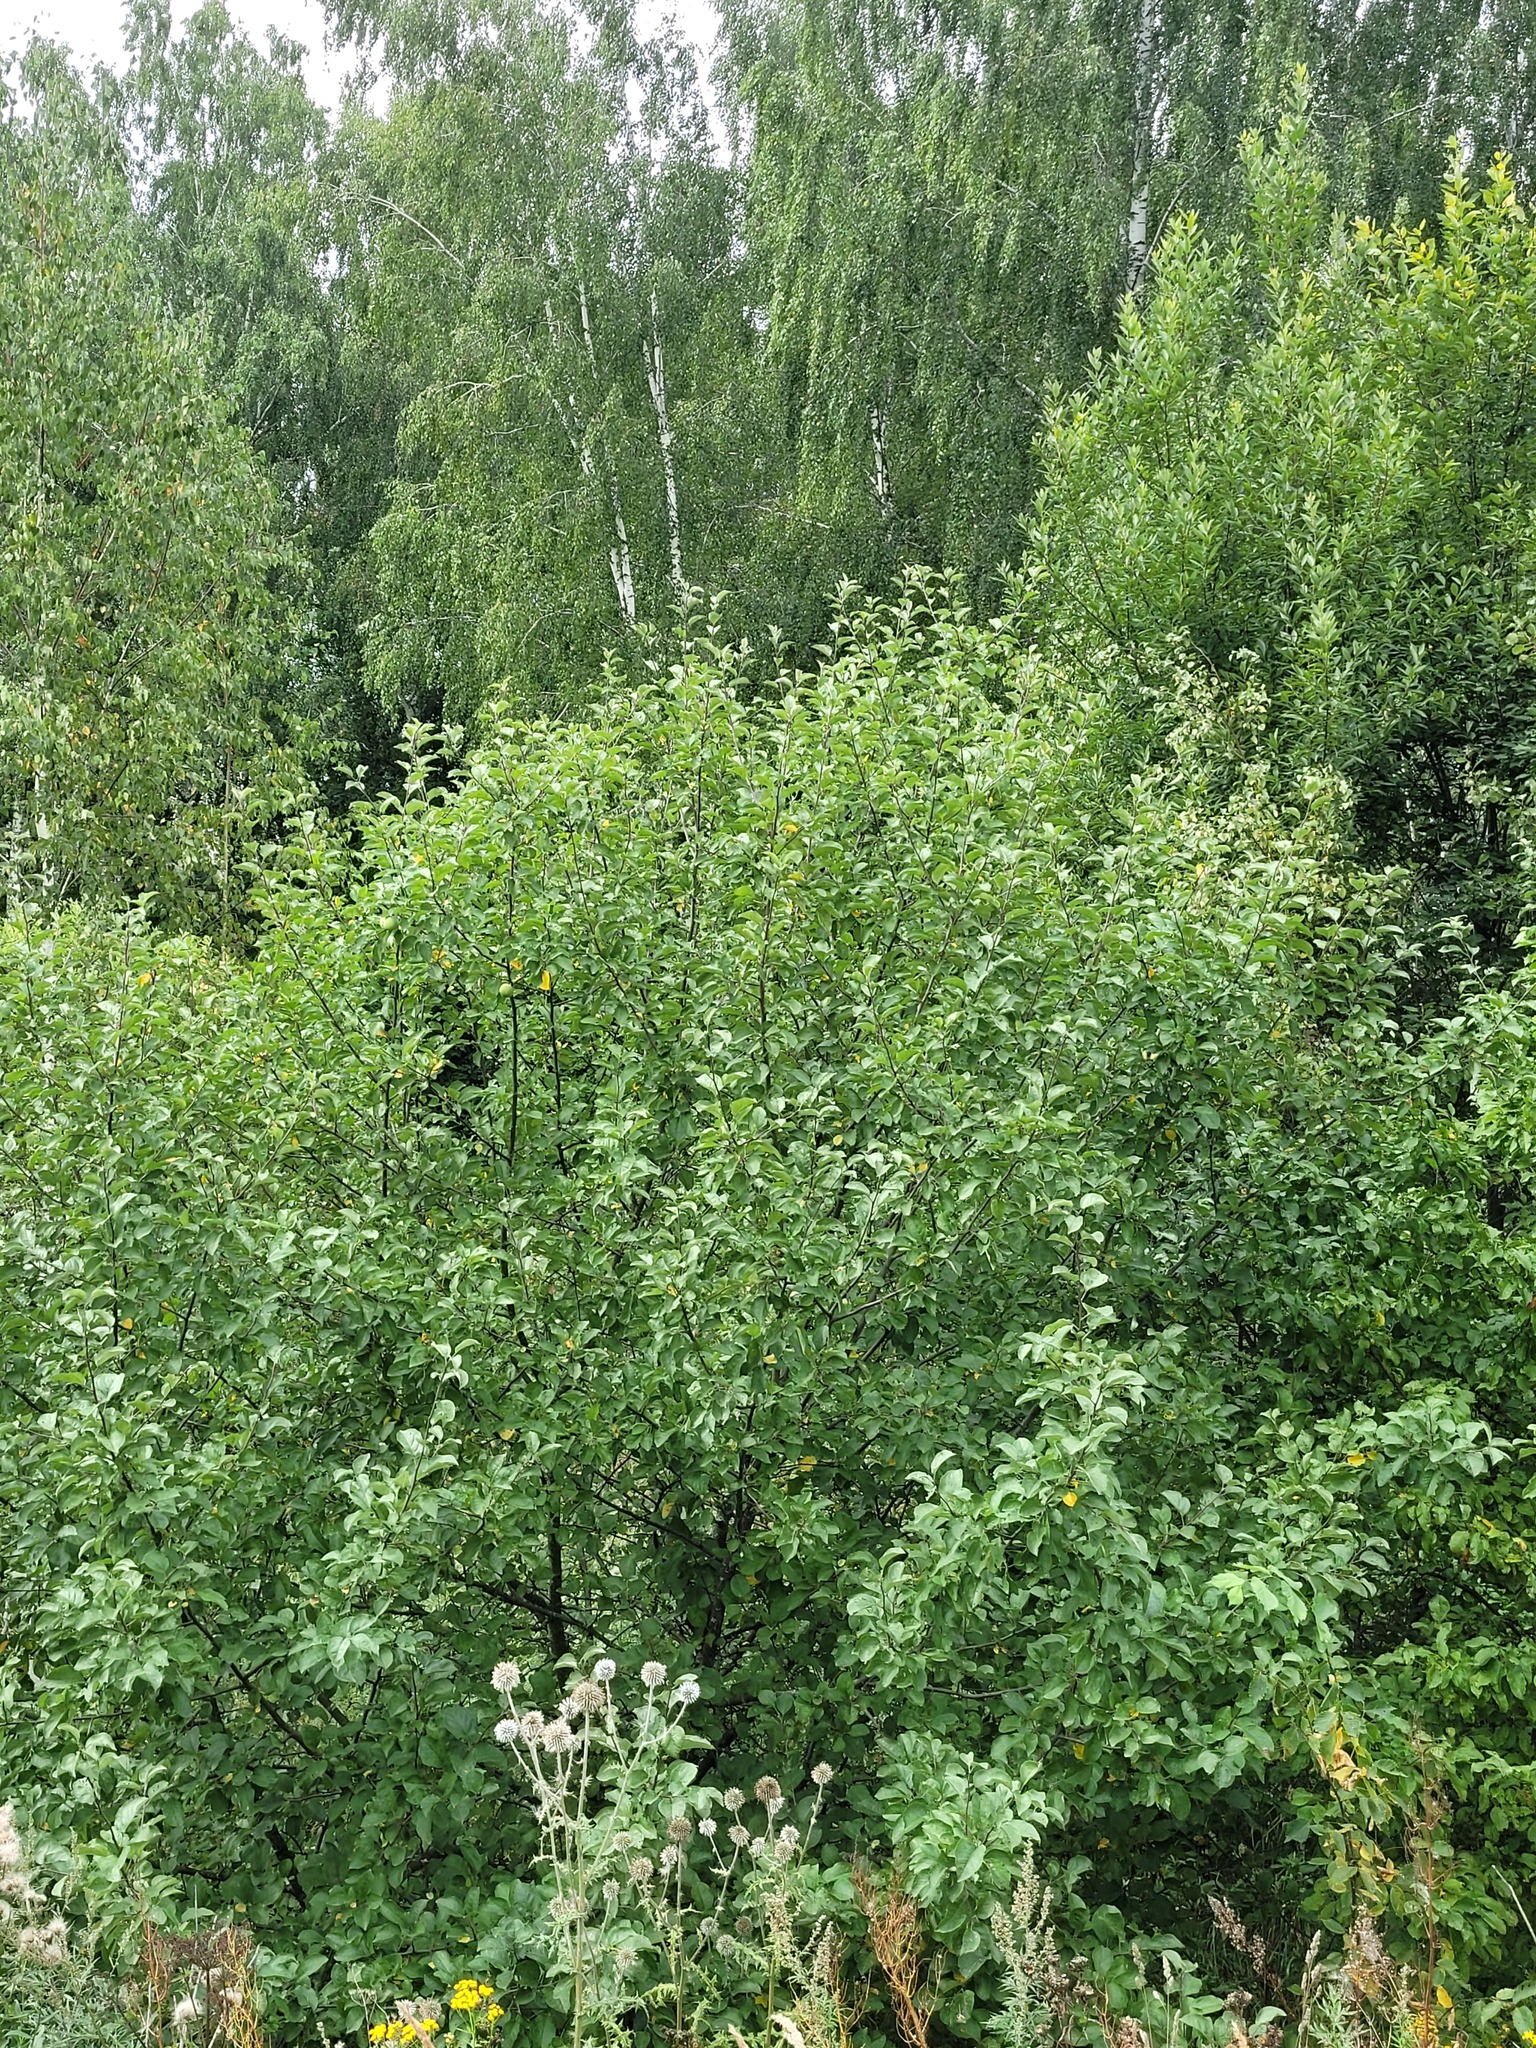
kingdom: Plantae
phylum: Tracheophyta
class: Magnoliopsida
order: Rosales
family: Rosaceae
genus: Malus
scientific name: Malus domestica
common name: Apple
